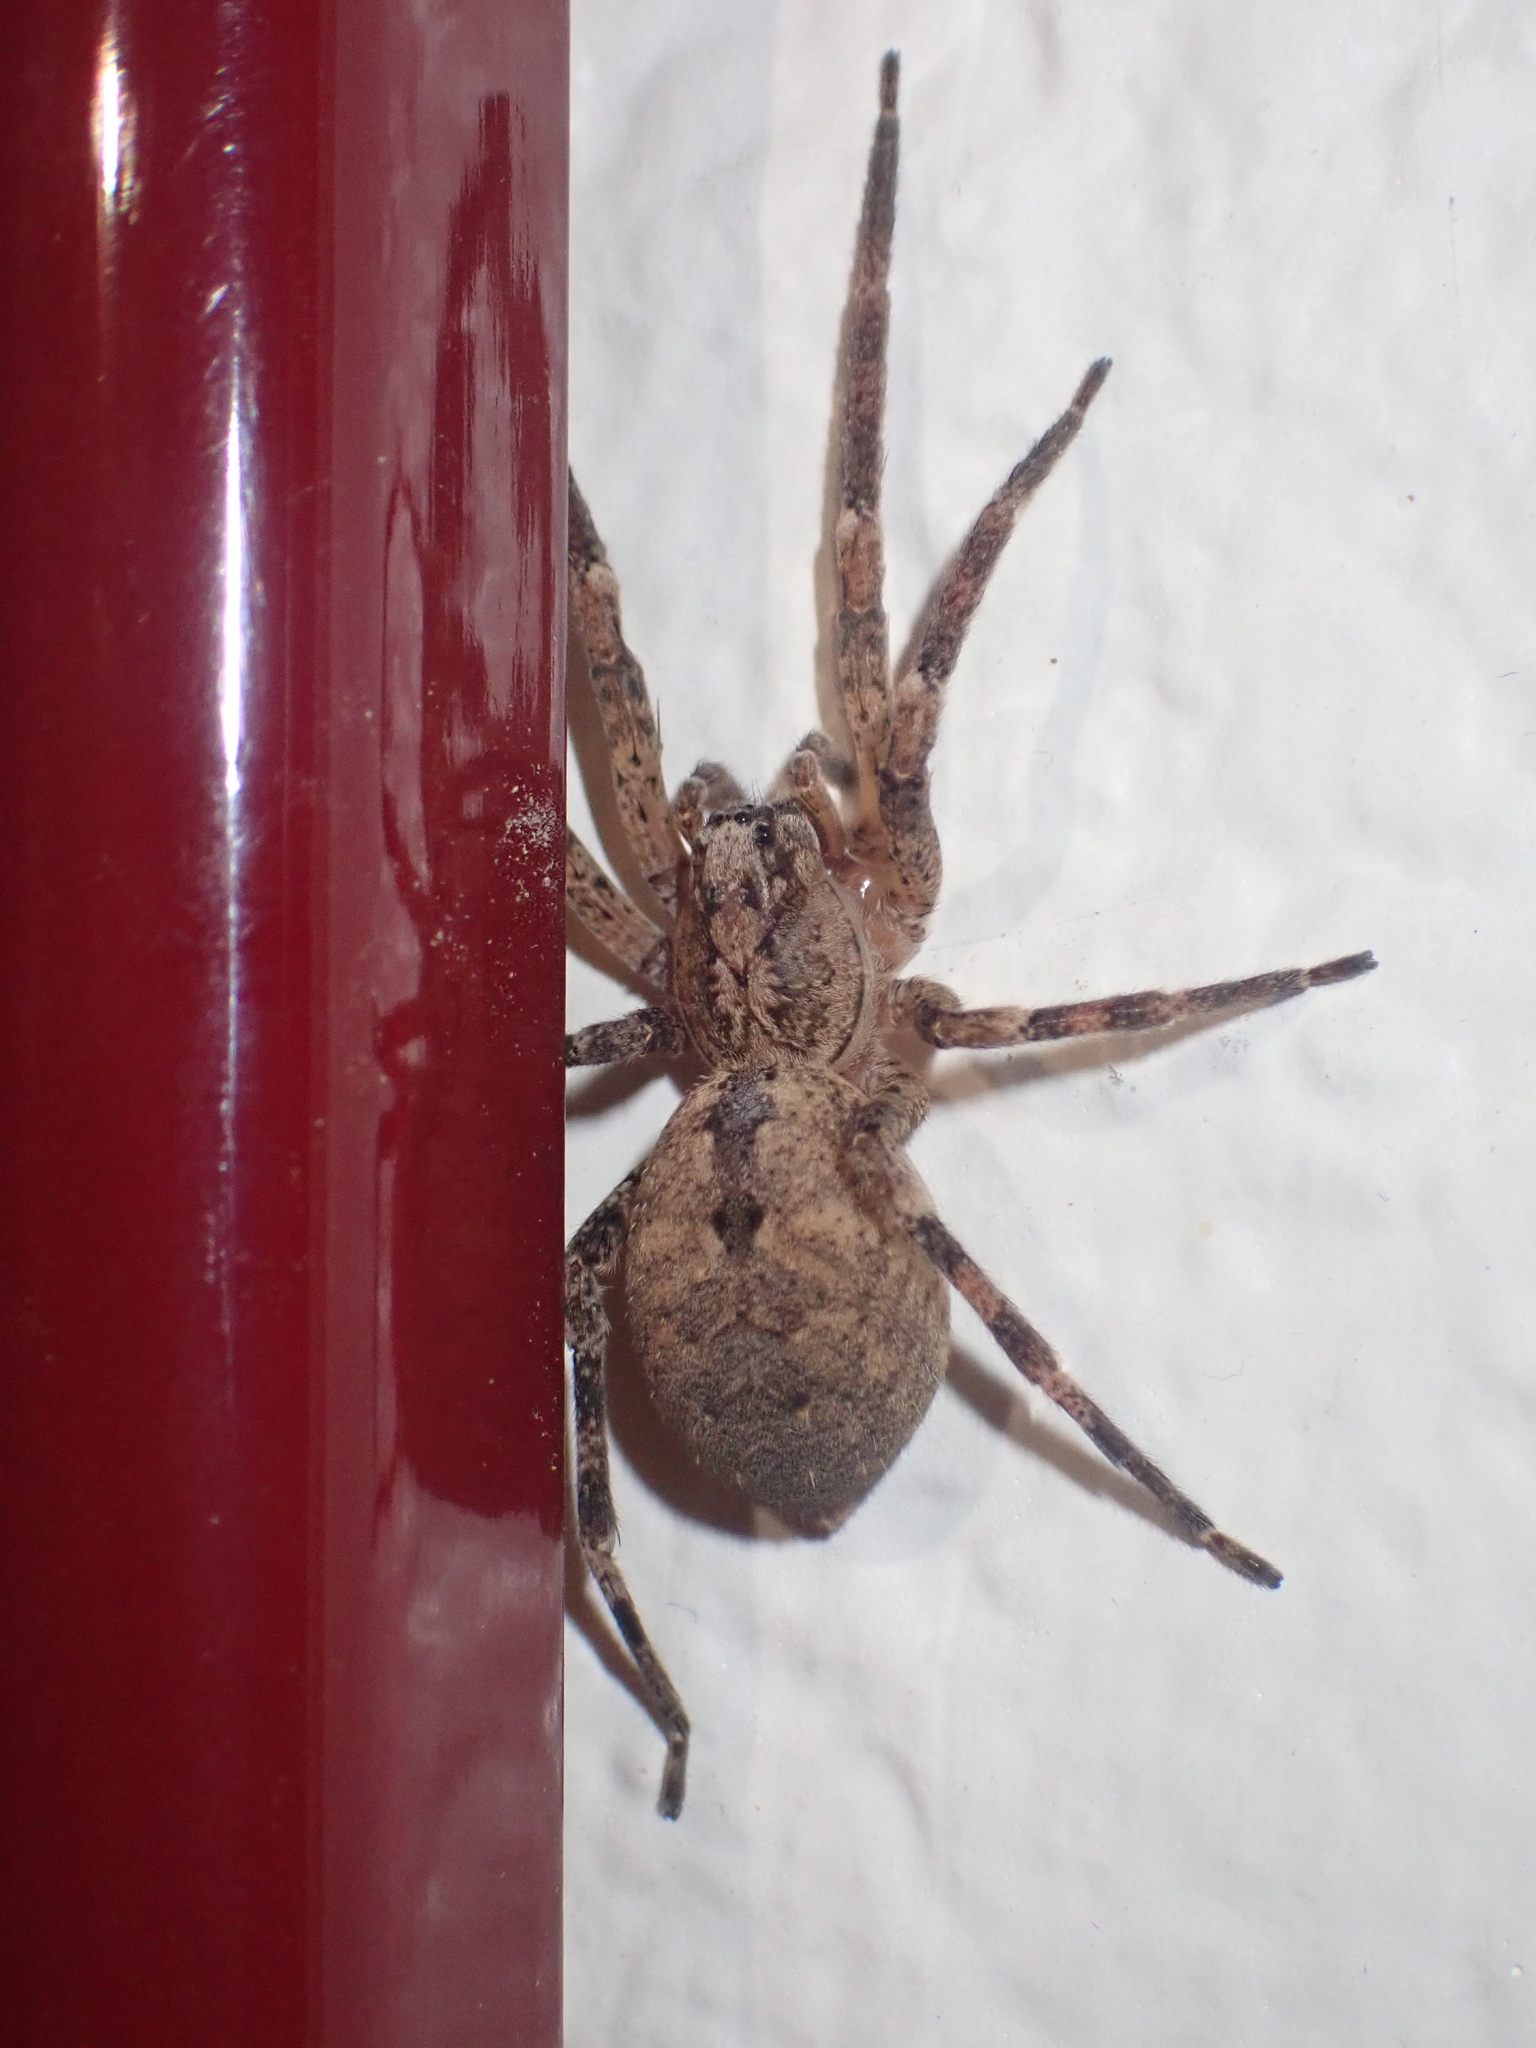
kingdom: Animalia
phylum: Arthropoda
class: Arachnida
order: Araneae
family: Zoropsidae
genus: Zoropsis
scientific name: Zoropsis spinimana
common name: Zoropsid spider
